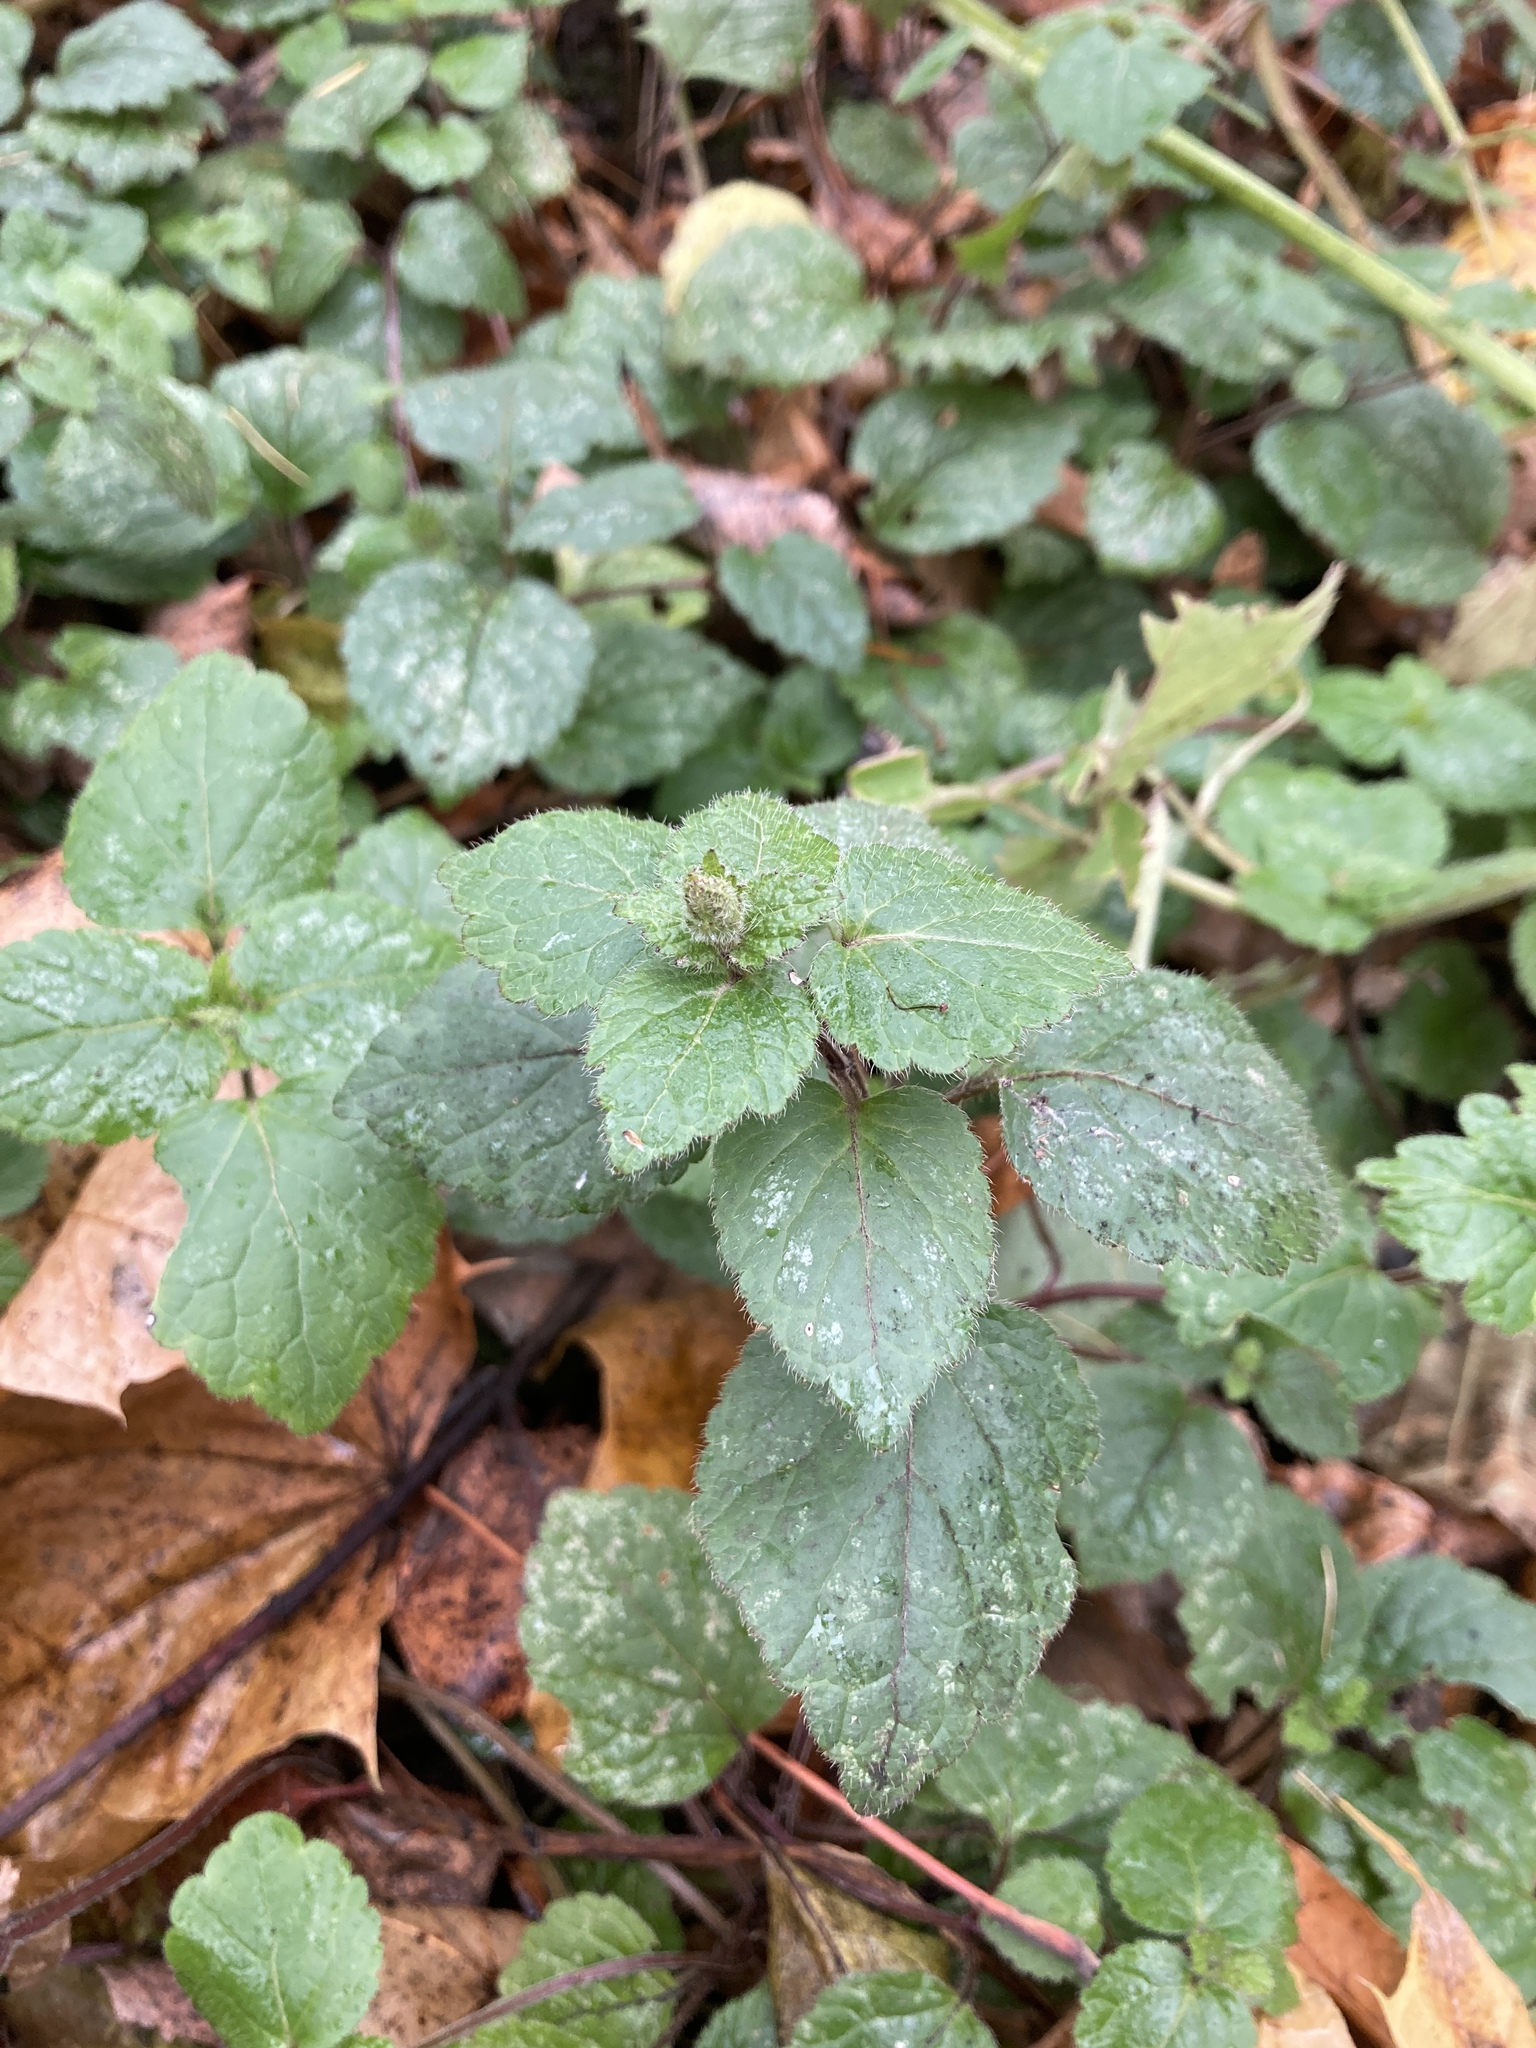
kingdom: Plantae
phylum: Tracheophyta
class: Magnoliopsida
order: Lamiales
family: Lamiaceae
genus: Lamium
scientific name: Lamium galeobdolon
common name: Yellow archangel
